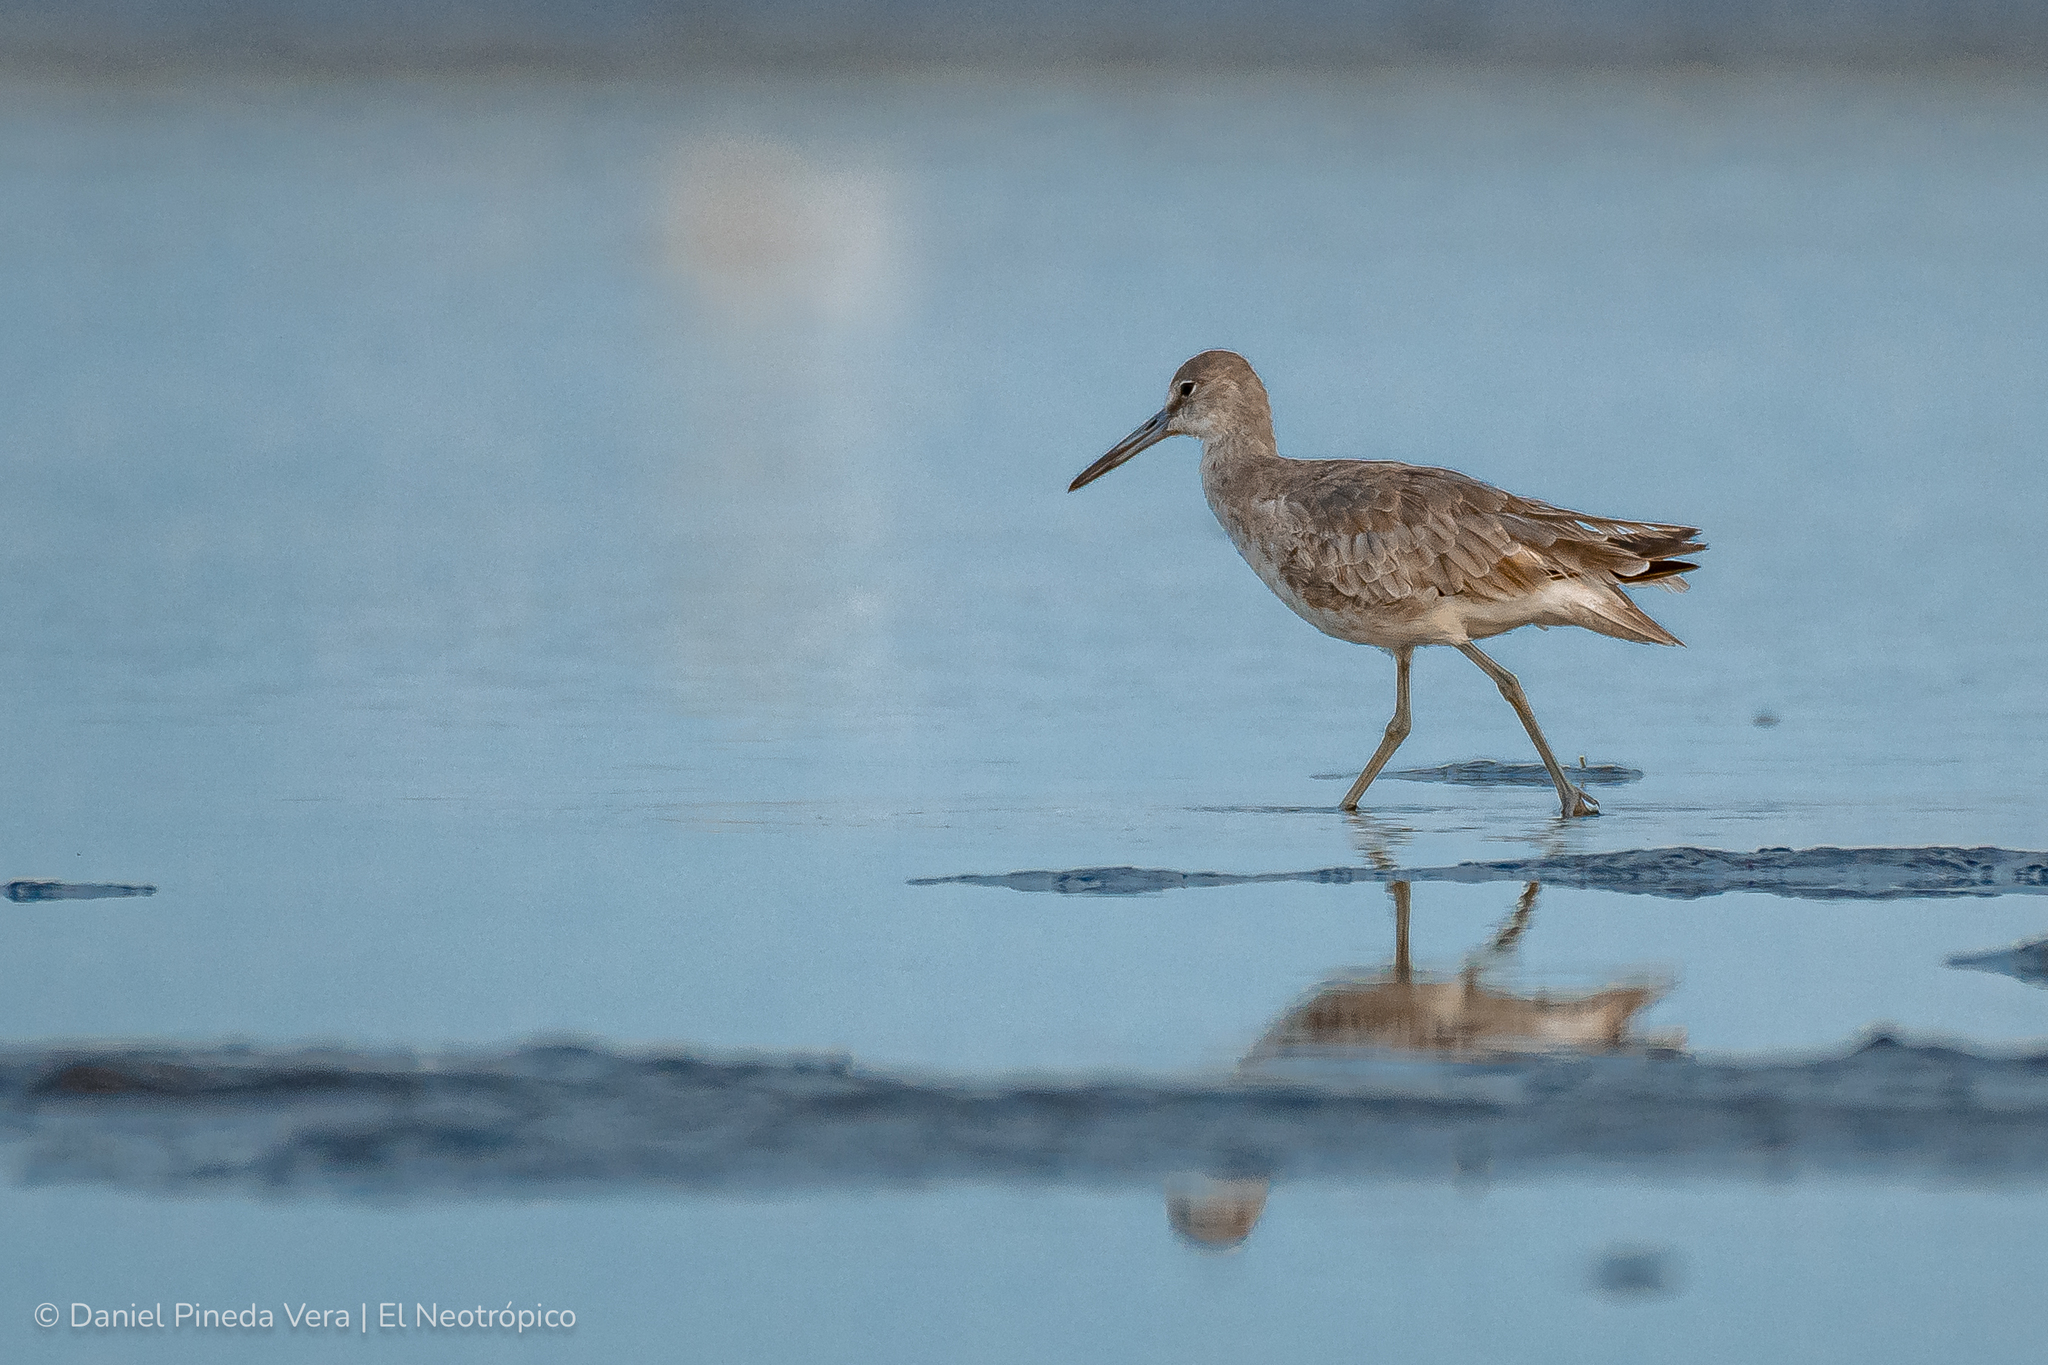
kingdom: Animalia
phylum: Chordata
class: Aves
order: Charadriiformes
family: Scolopacidae
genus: Tringa
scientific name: Tringa semipalmata
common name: Willet
